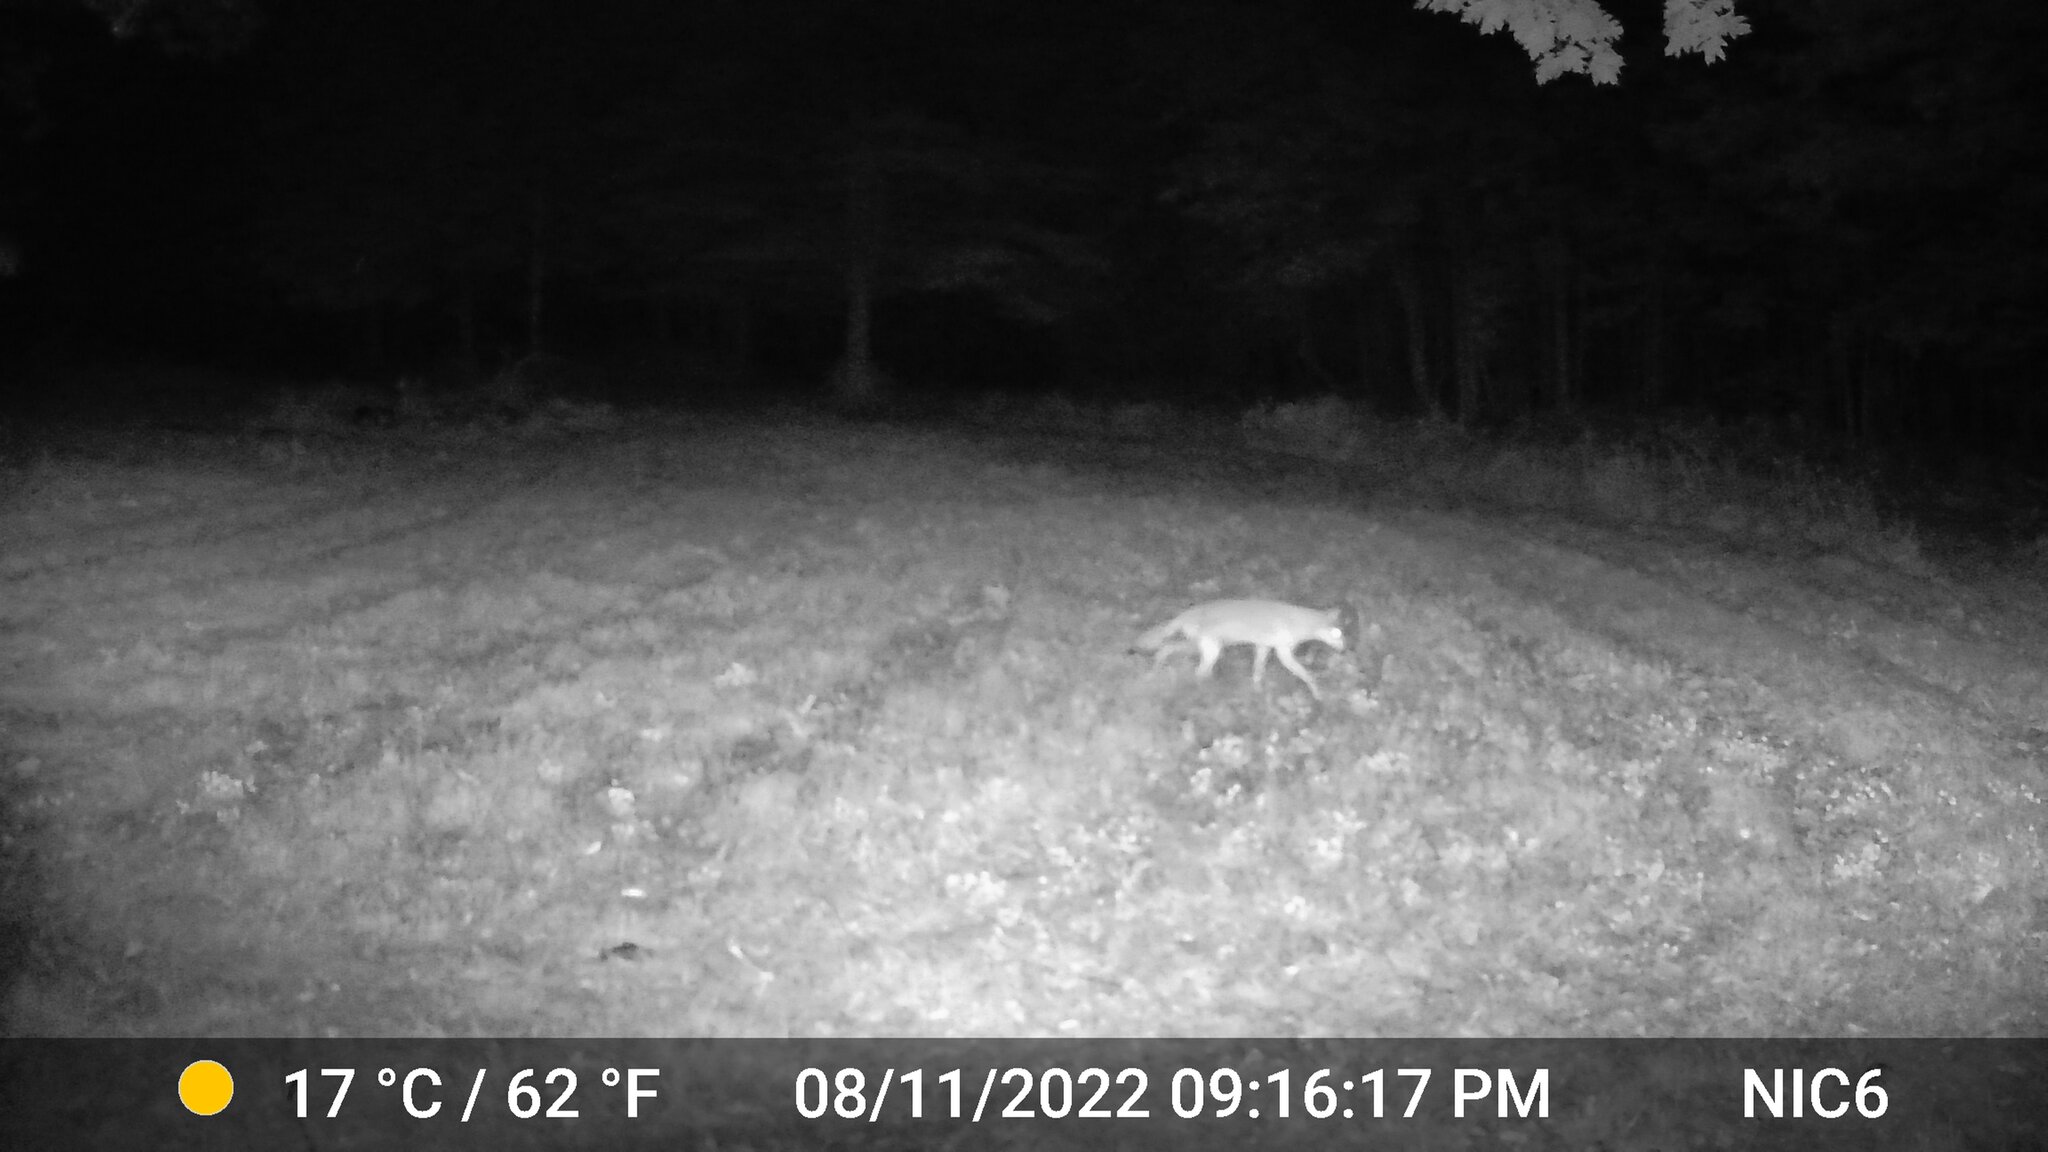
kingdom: Animalia
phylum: Chordata
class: Mammalia
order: Carnivora
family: Canidae
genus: Canis
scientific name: Canis latrans
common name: Coyote
